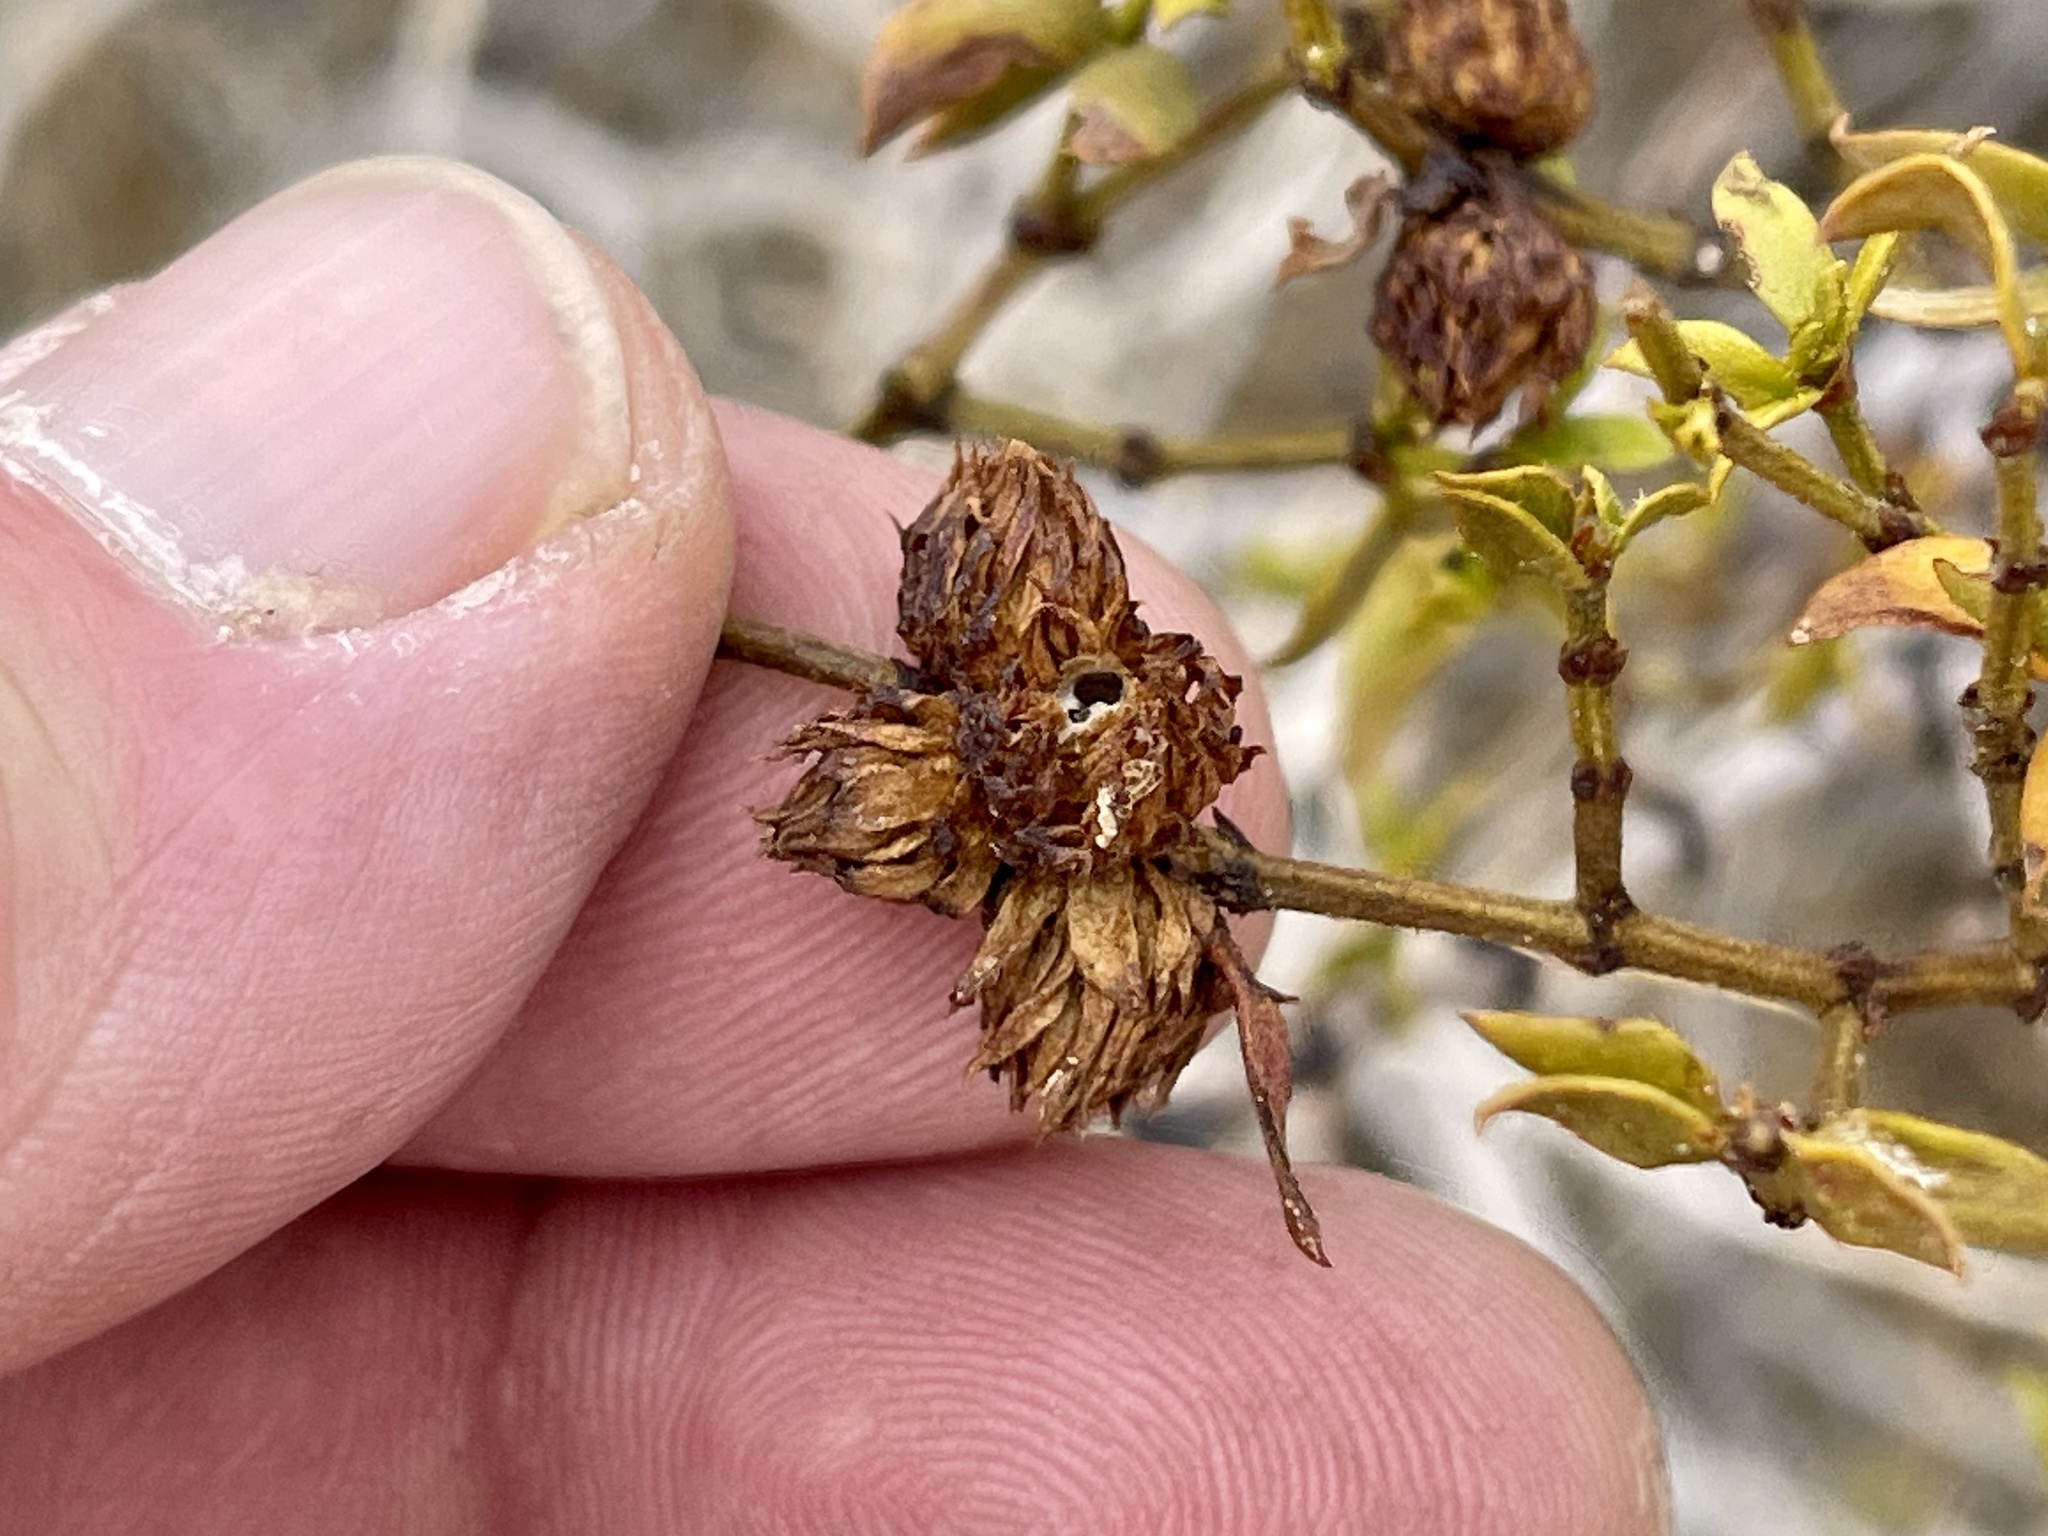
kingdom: Animalia
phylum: Arthropoda
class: Insecta
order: Diptera
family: Cecidomyiidae
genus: Asphondylia
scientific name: Asphondylia rosetta
